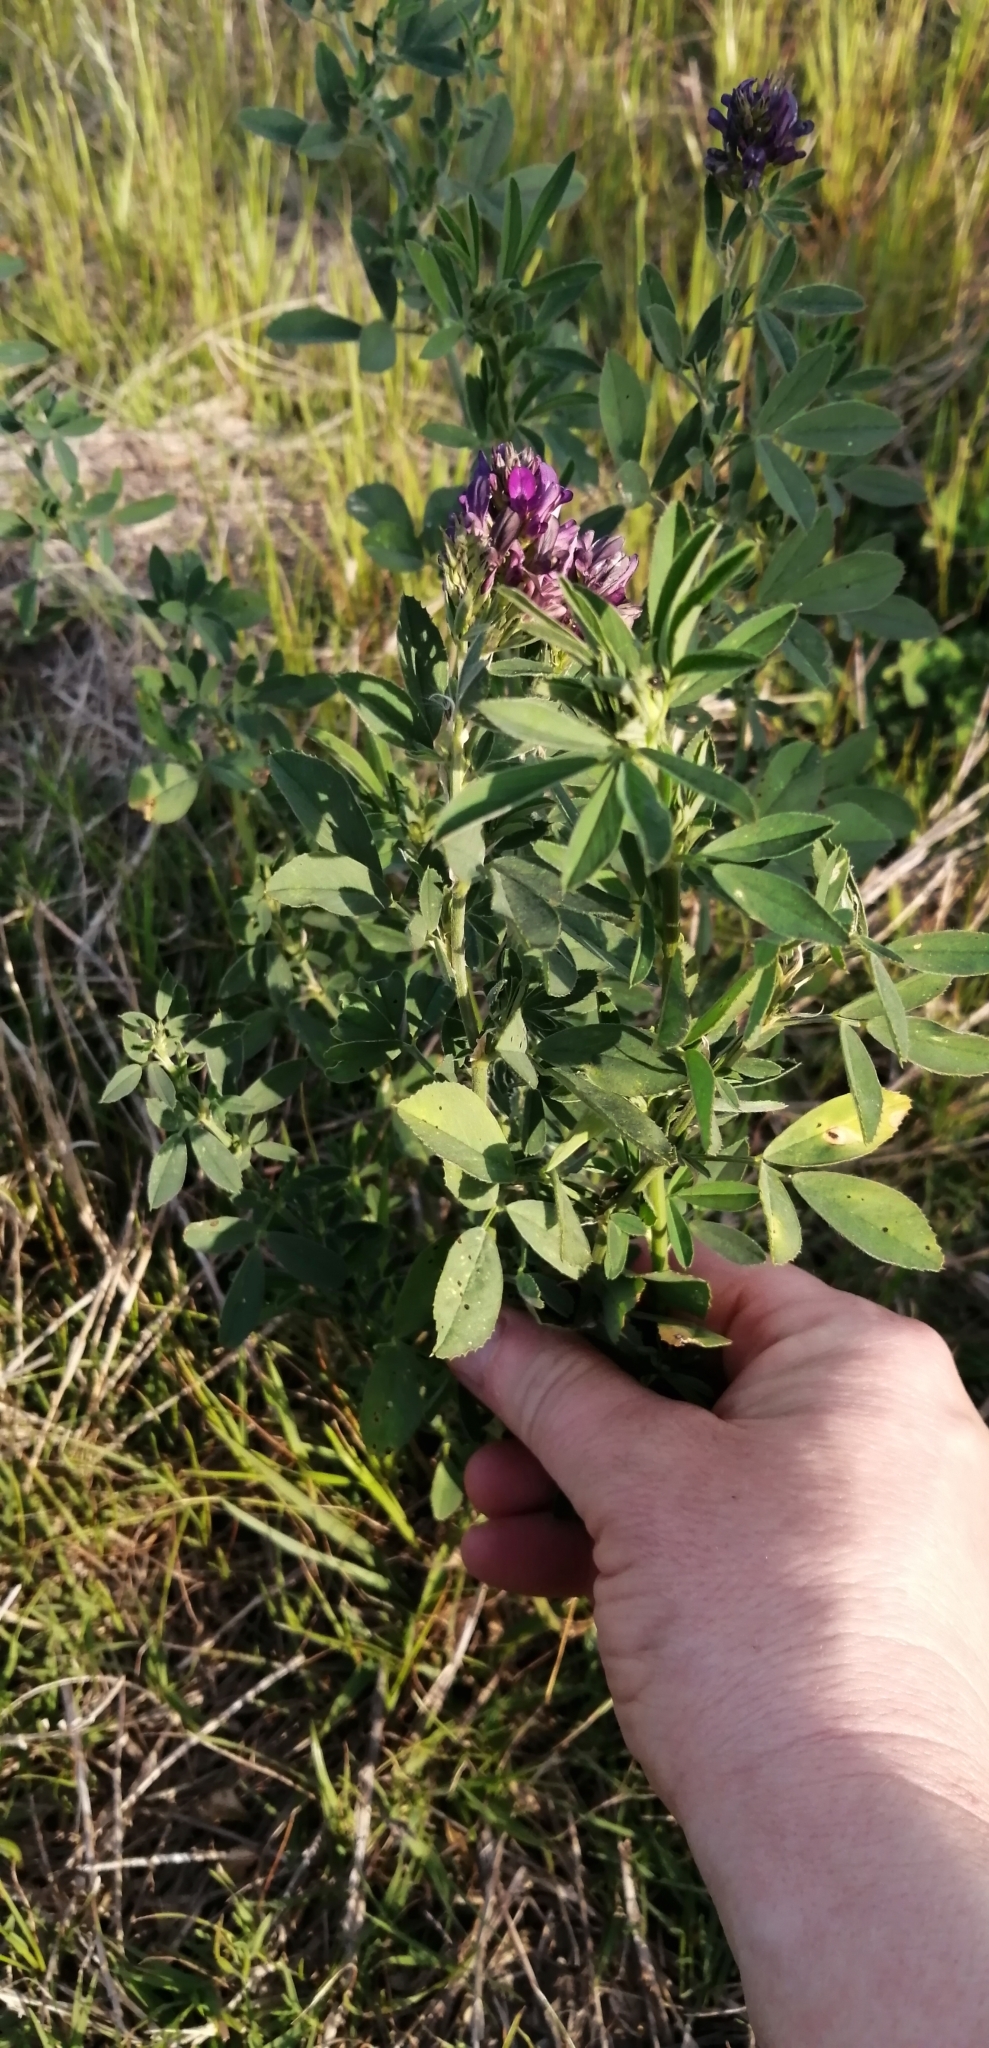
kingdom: Plantae
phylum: Tracheophyta
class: Magnoliopsida
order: Fabales
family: Fabaceae
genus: Medicago
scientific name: Medicago sativa
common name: Alfalfa
